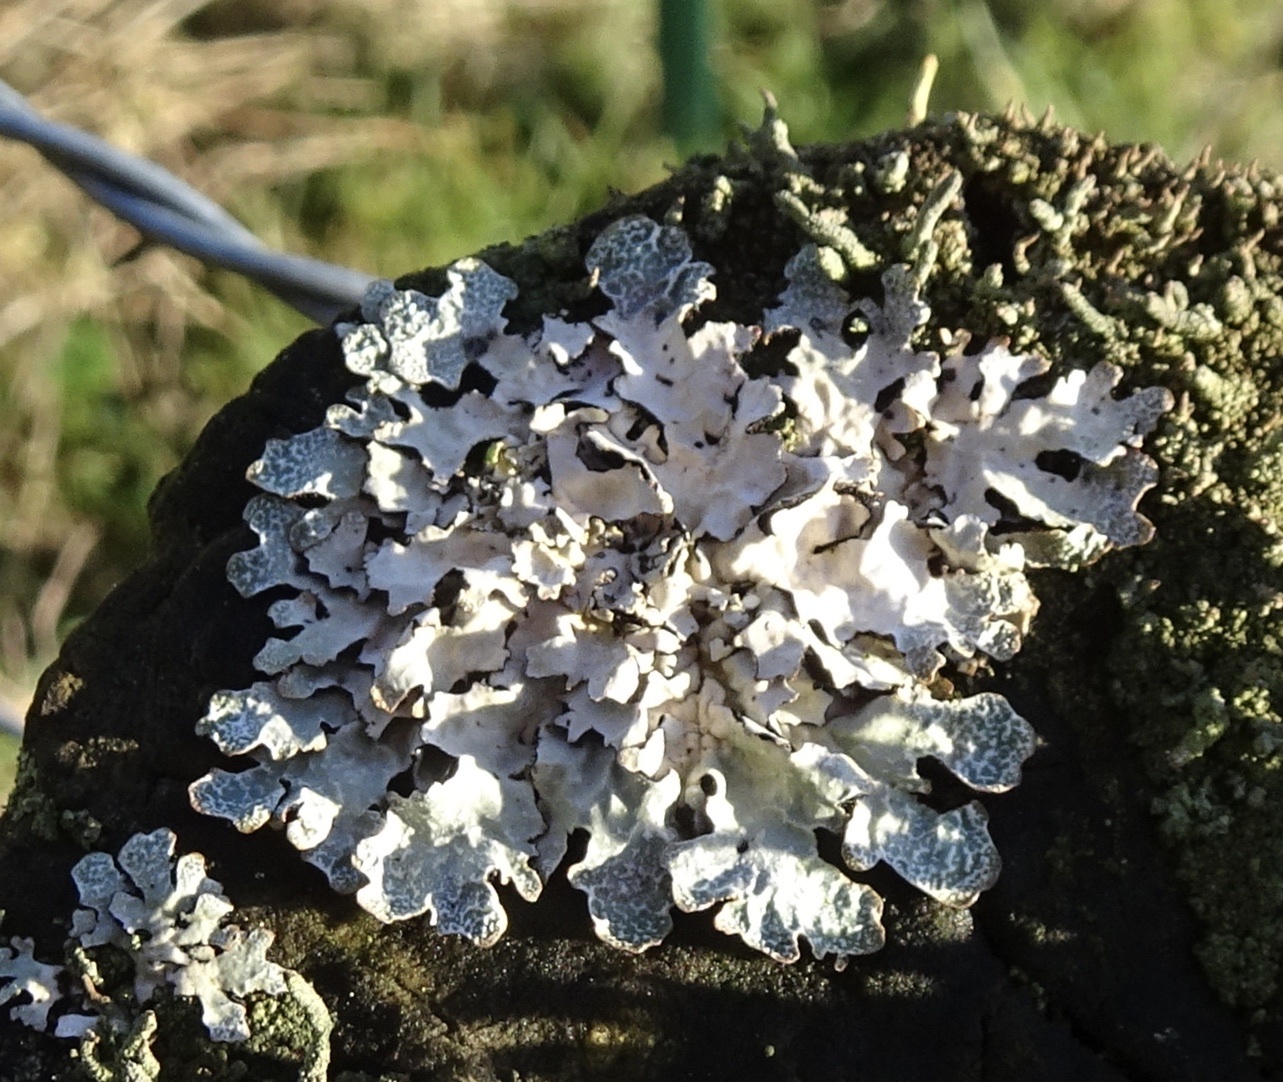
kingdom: Fungi
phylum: Ascomycota
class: Lecanoromycetes
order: Lecanorales
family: Parmeliaceae
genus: Parmelia
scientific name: Parmelia sulcata
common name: Netted shield lichen
